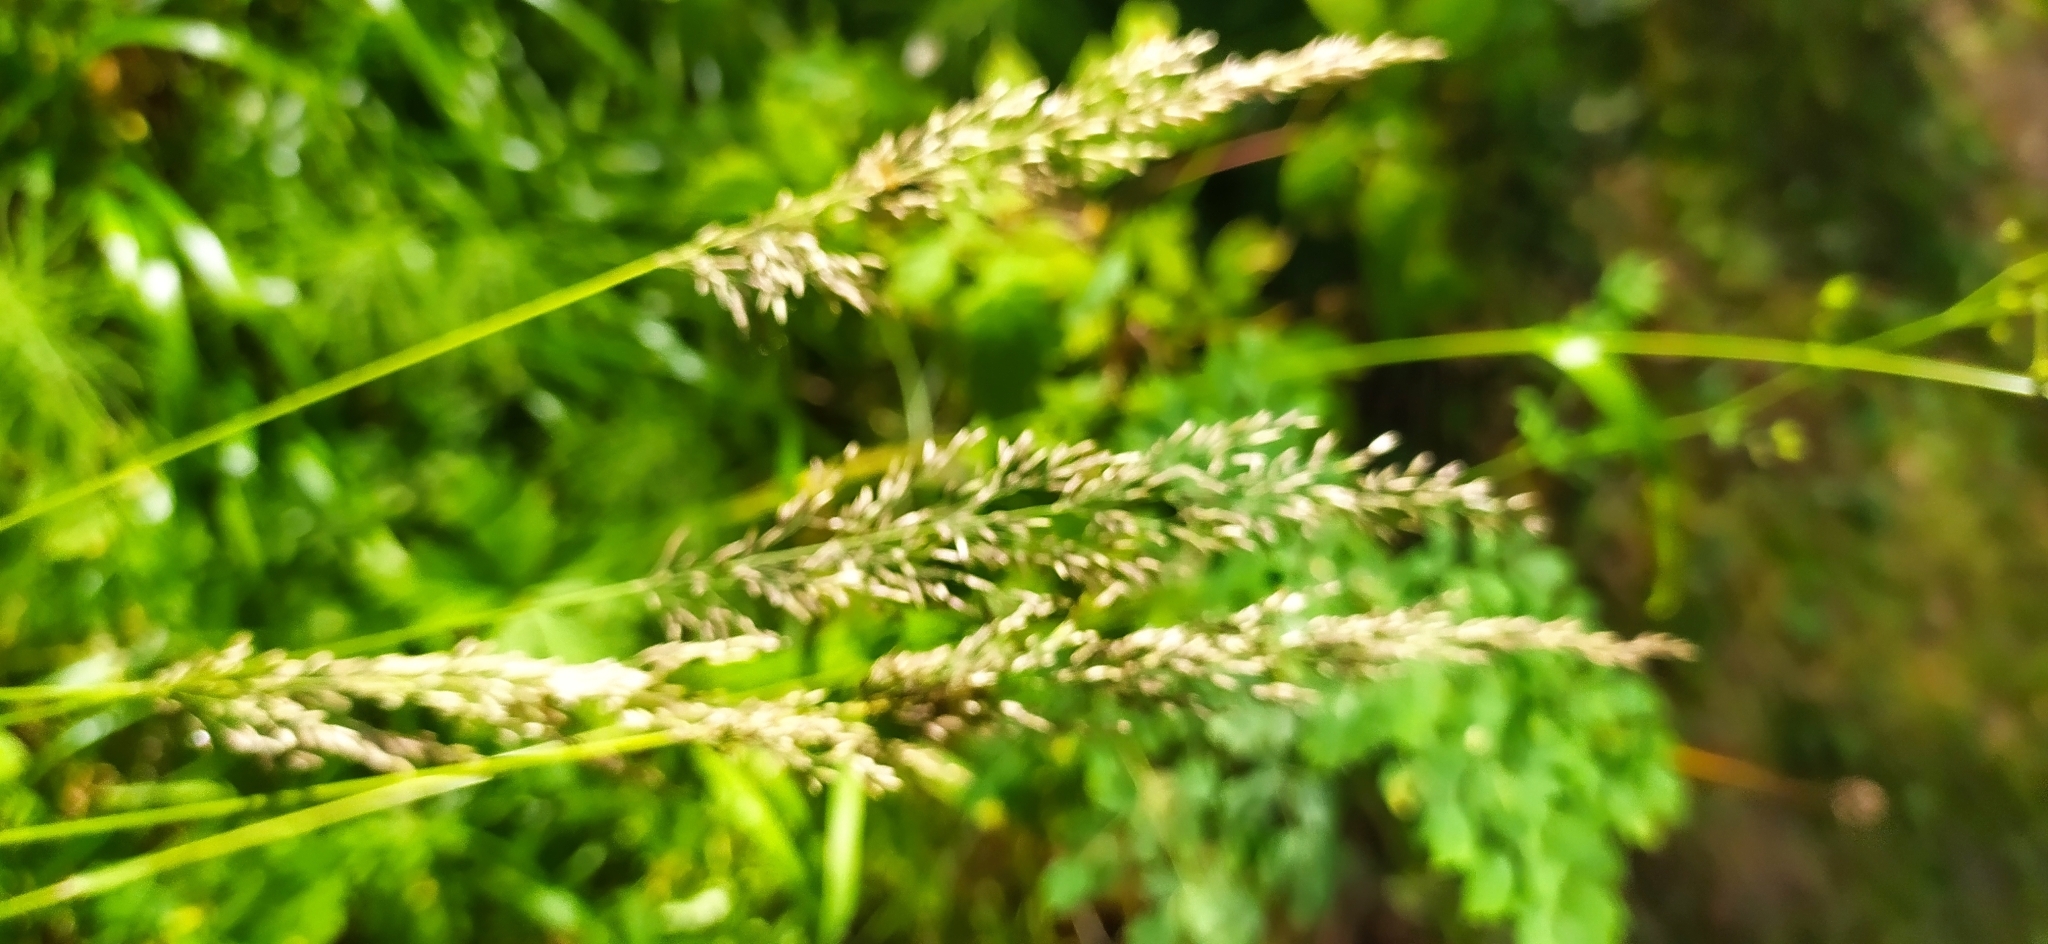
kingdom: Plantae
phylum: Tracheophyta
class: Liliopsida
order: Poales
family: Poaceae
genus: Calamagrostis
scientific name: Calamagrostis arundinacea
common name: Metskastik
